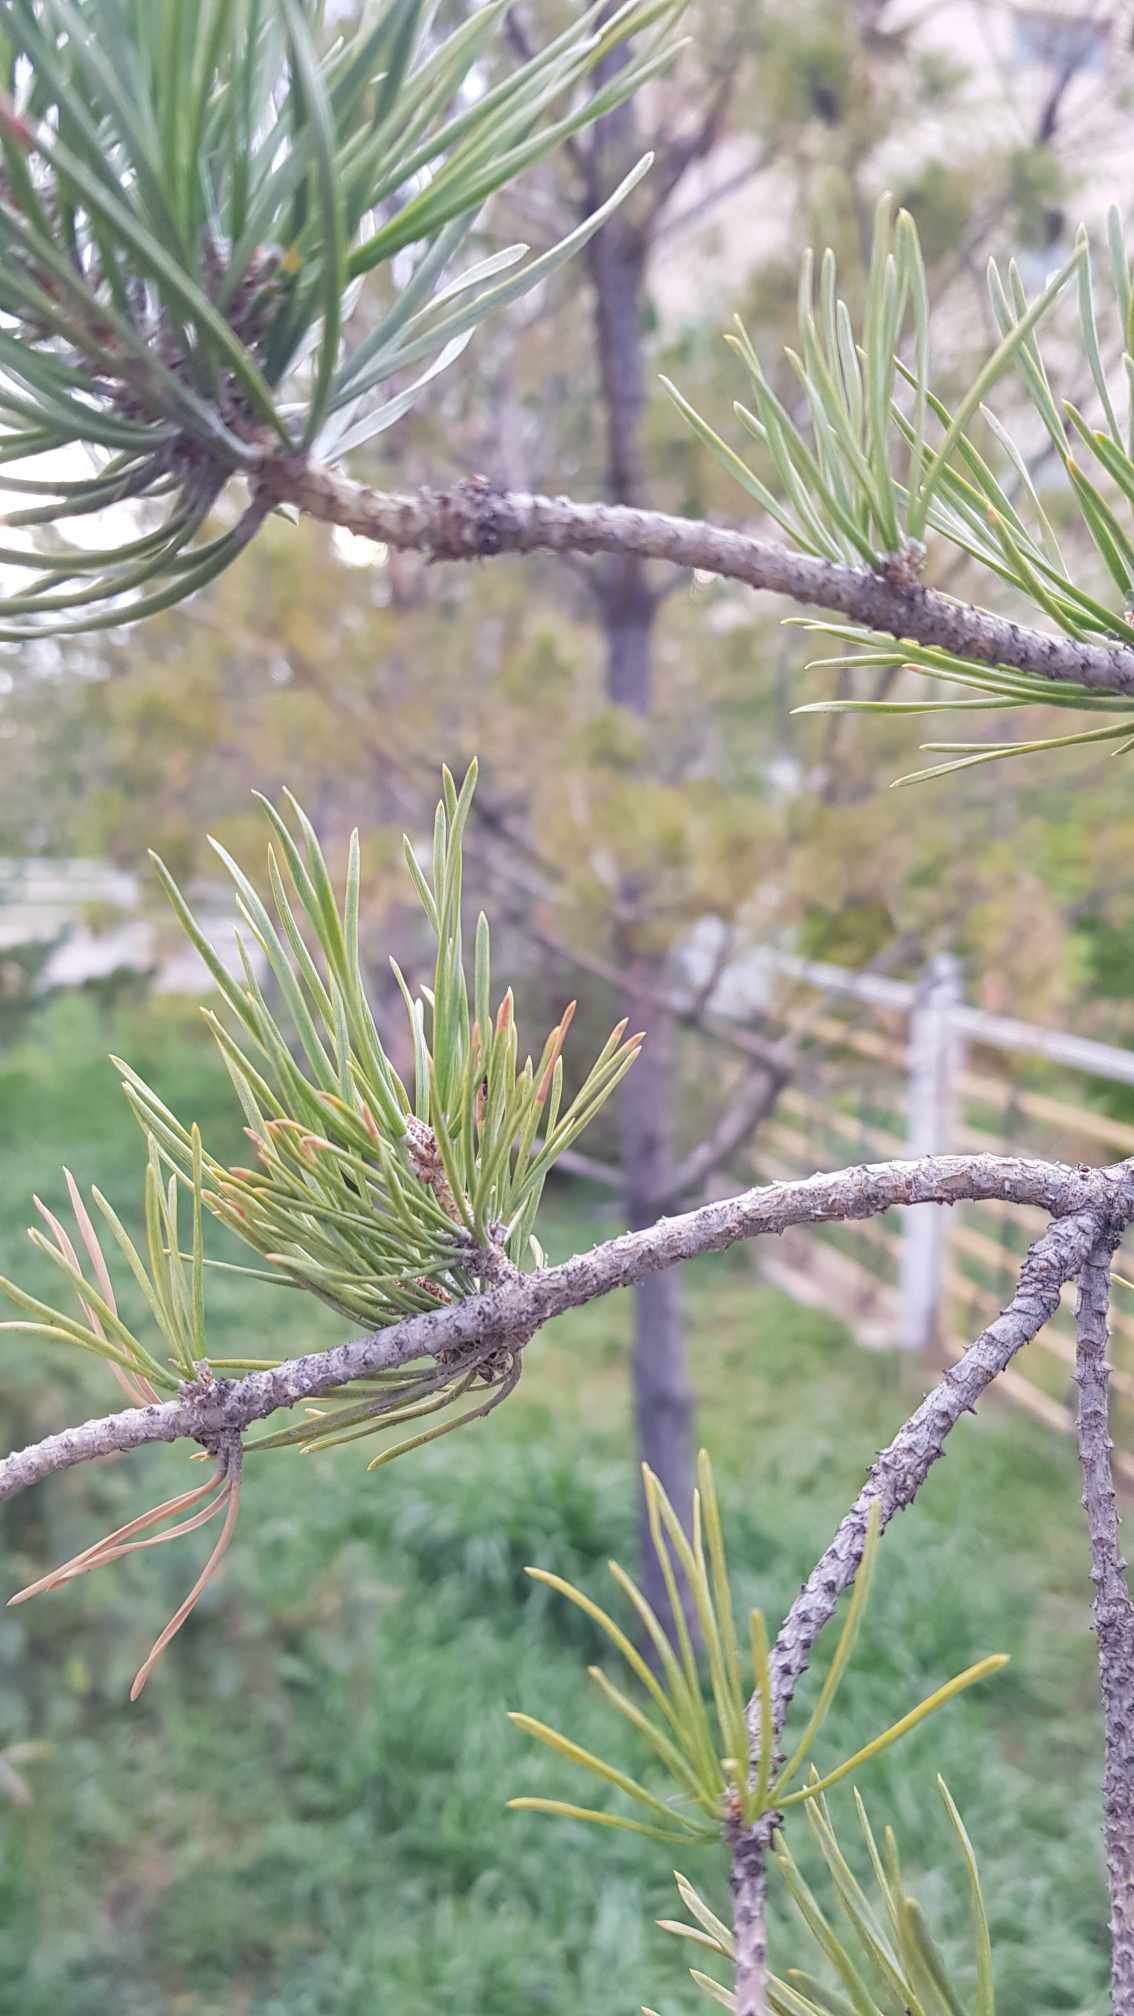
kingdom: Plantae
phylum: Tracheophyta
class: Pinopsida
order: Pinales
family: Pinaceae
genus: Pinus
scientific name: Pinus sylvestris
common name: Scots pine
